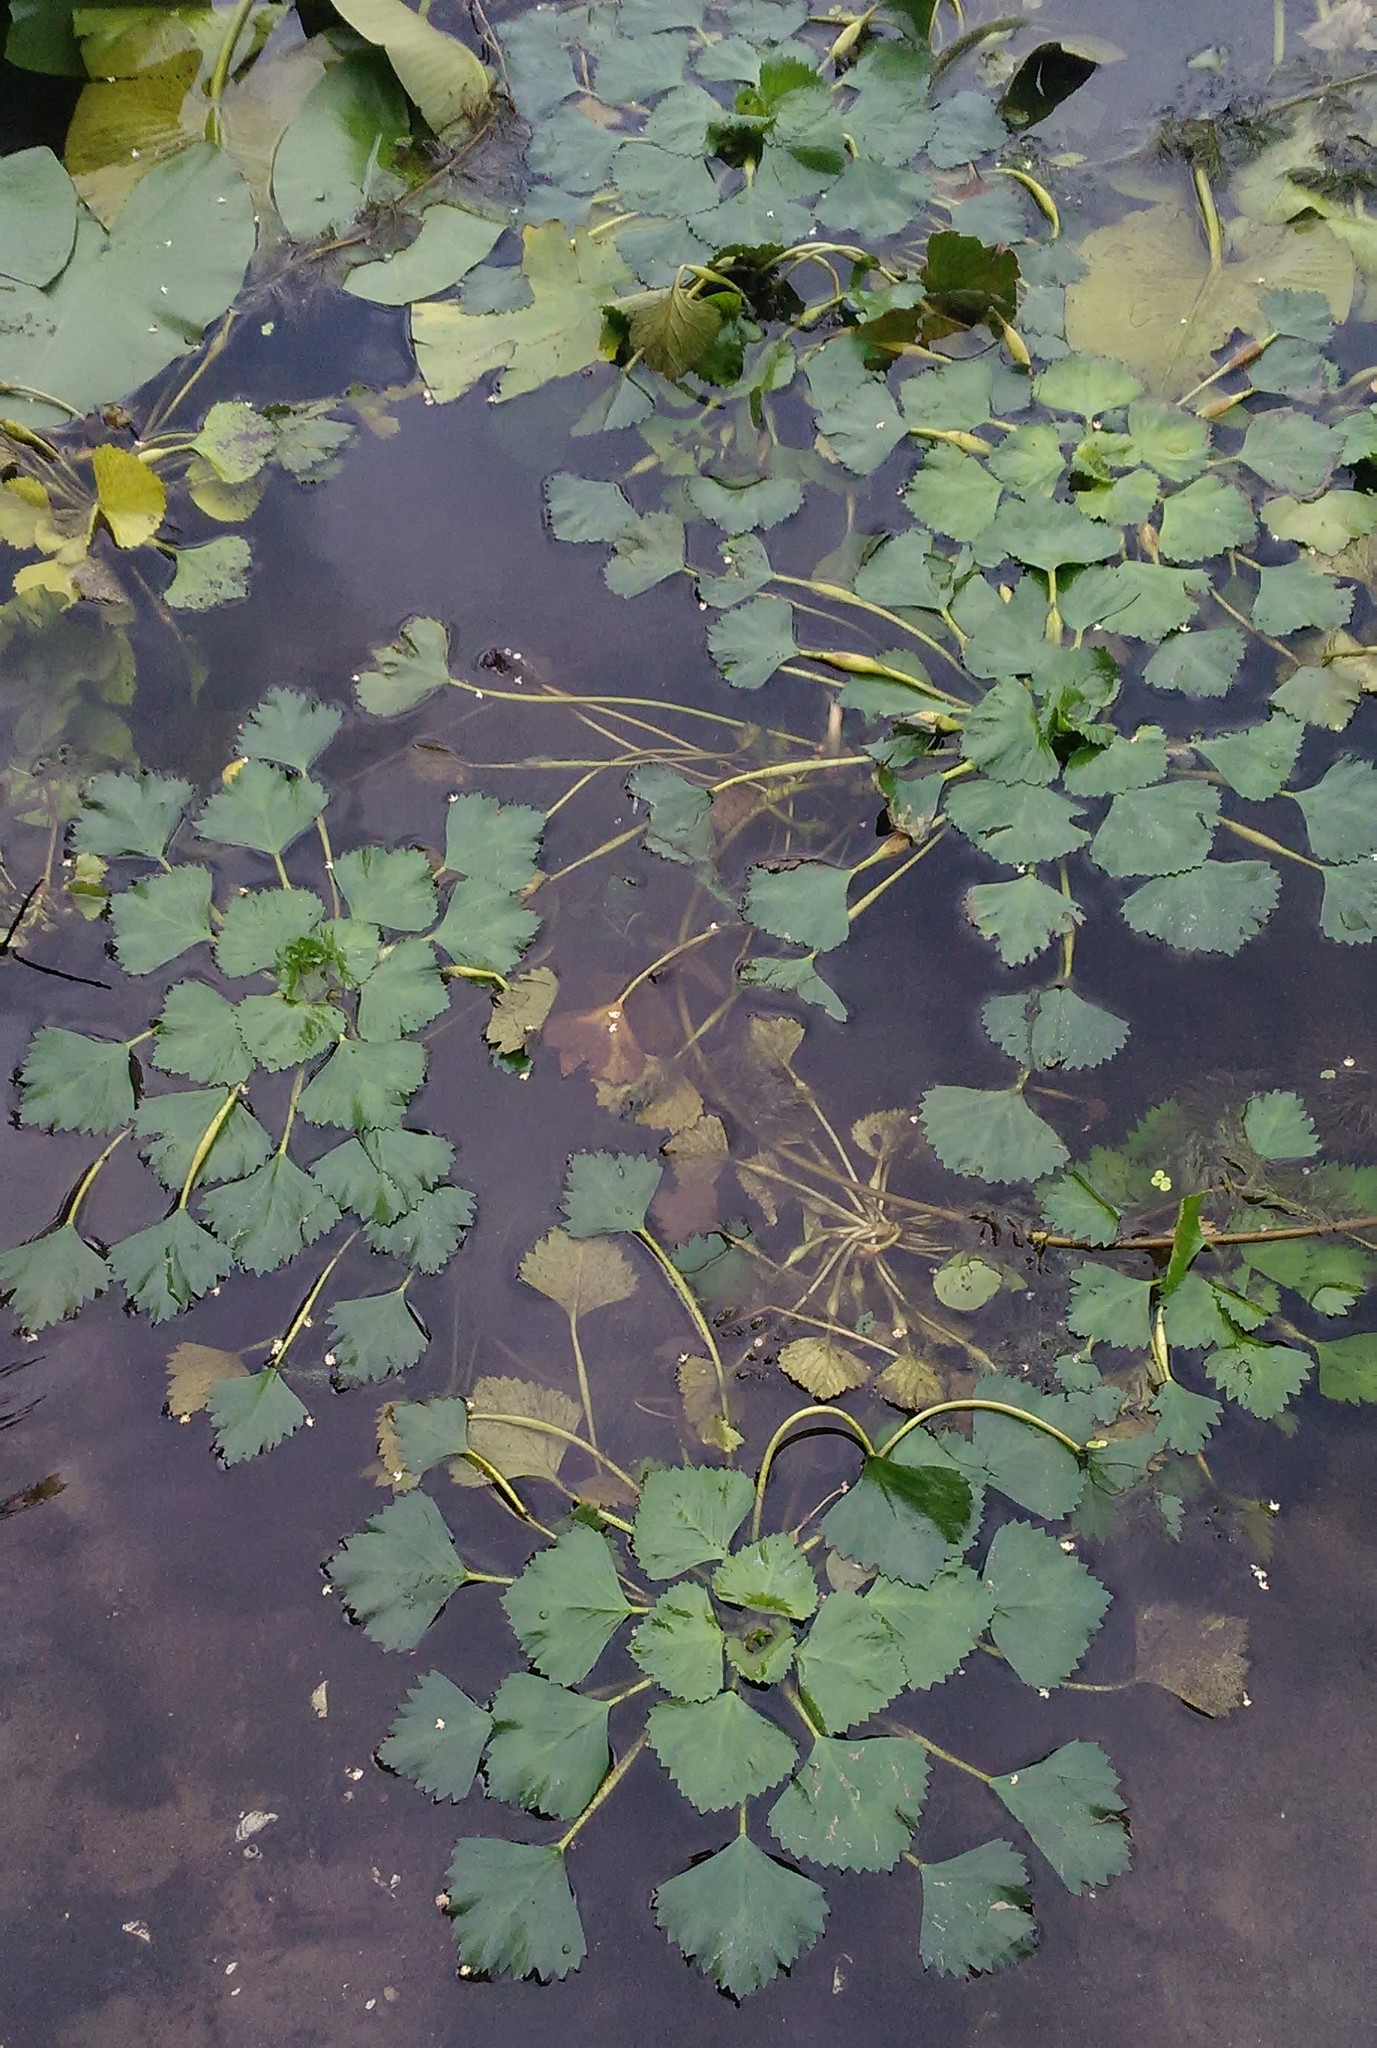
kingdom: Plantae
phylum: Tracheophyta
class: Magnoliopsida
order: Myrtales
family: Lythraceae
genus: Trapa
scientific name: Trapa natans
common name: Water chestnut
